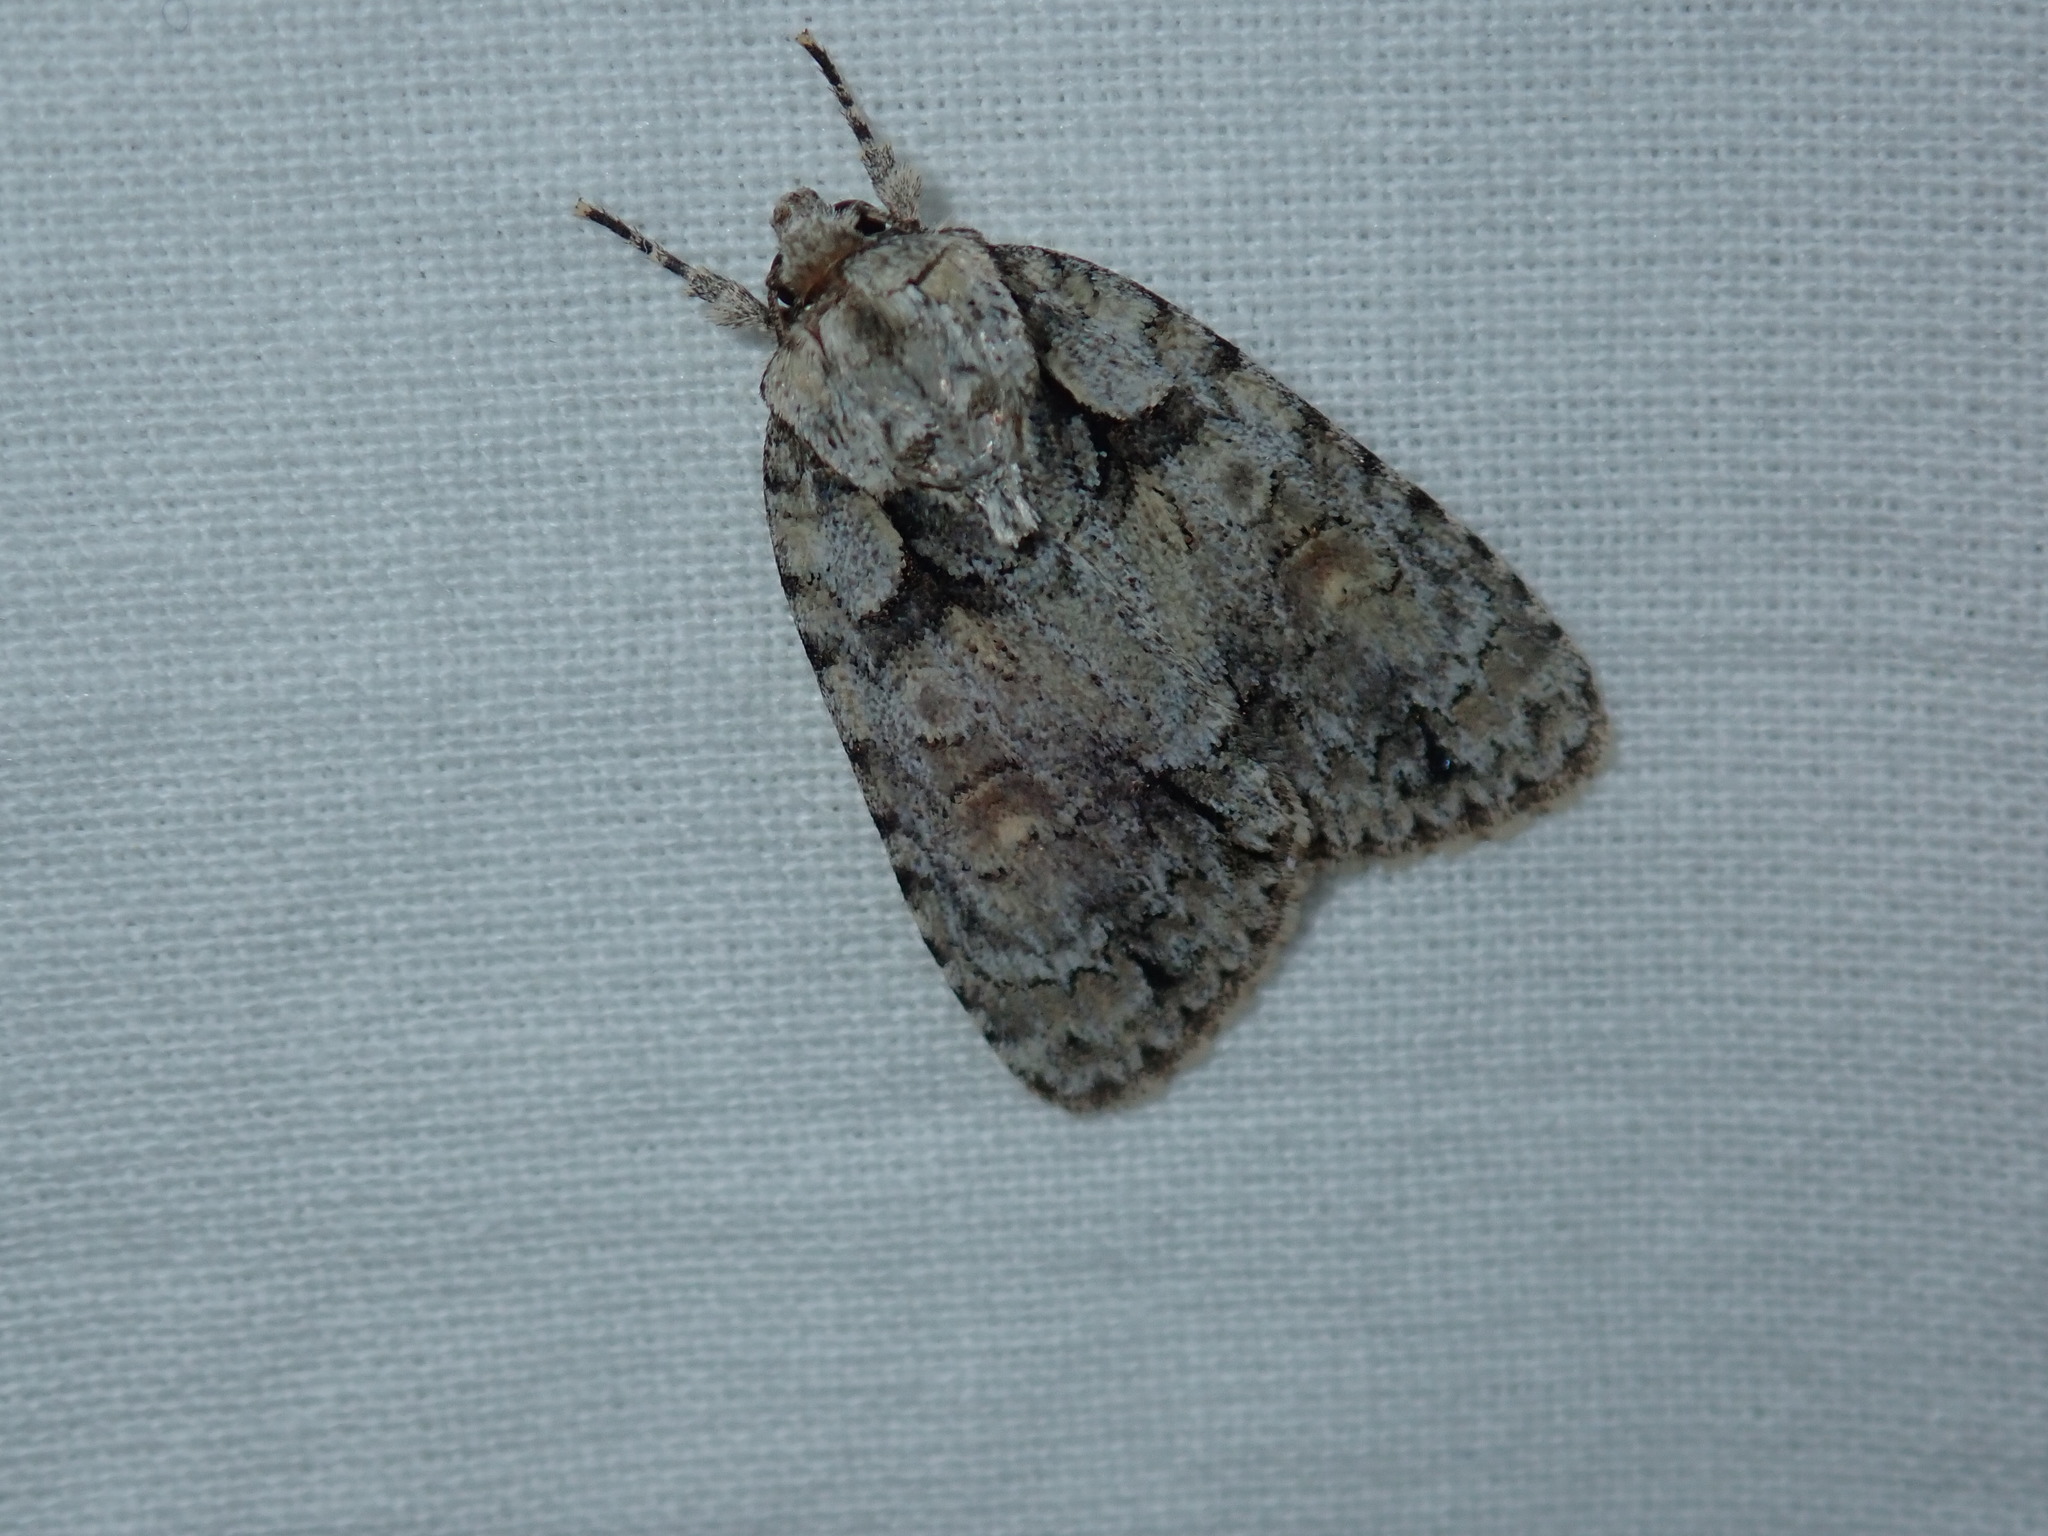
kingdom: Animalia
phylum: Arthropoda
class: Insecta
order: Lepidoptera
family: Noctuidae
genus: Acronicta
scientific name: Acronicta ovata
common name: Epauleted oak dagger
